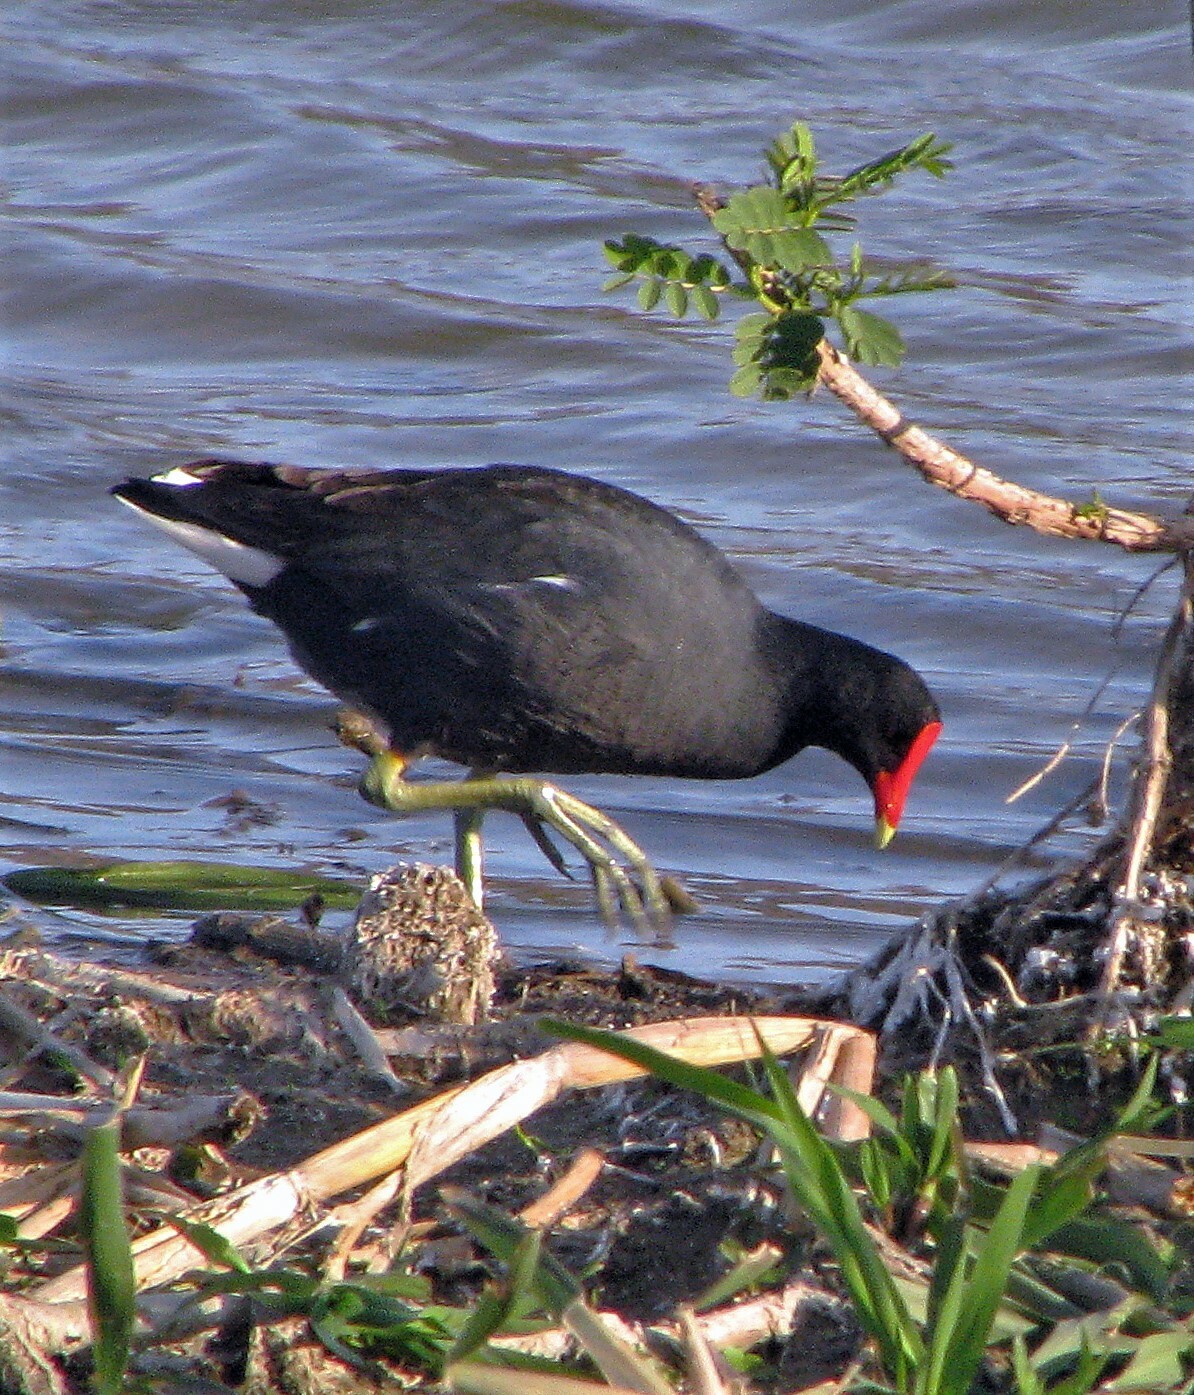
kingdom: Animalia
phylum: Chordata
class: Aves
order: Gruiformes
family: Rallidae
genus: Gallinula
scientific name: Gallinula chloropus
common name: Common moorhen
